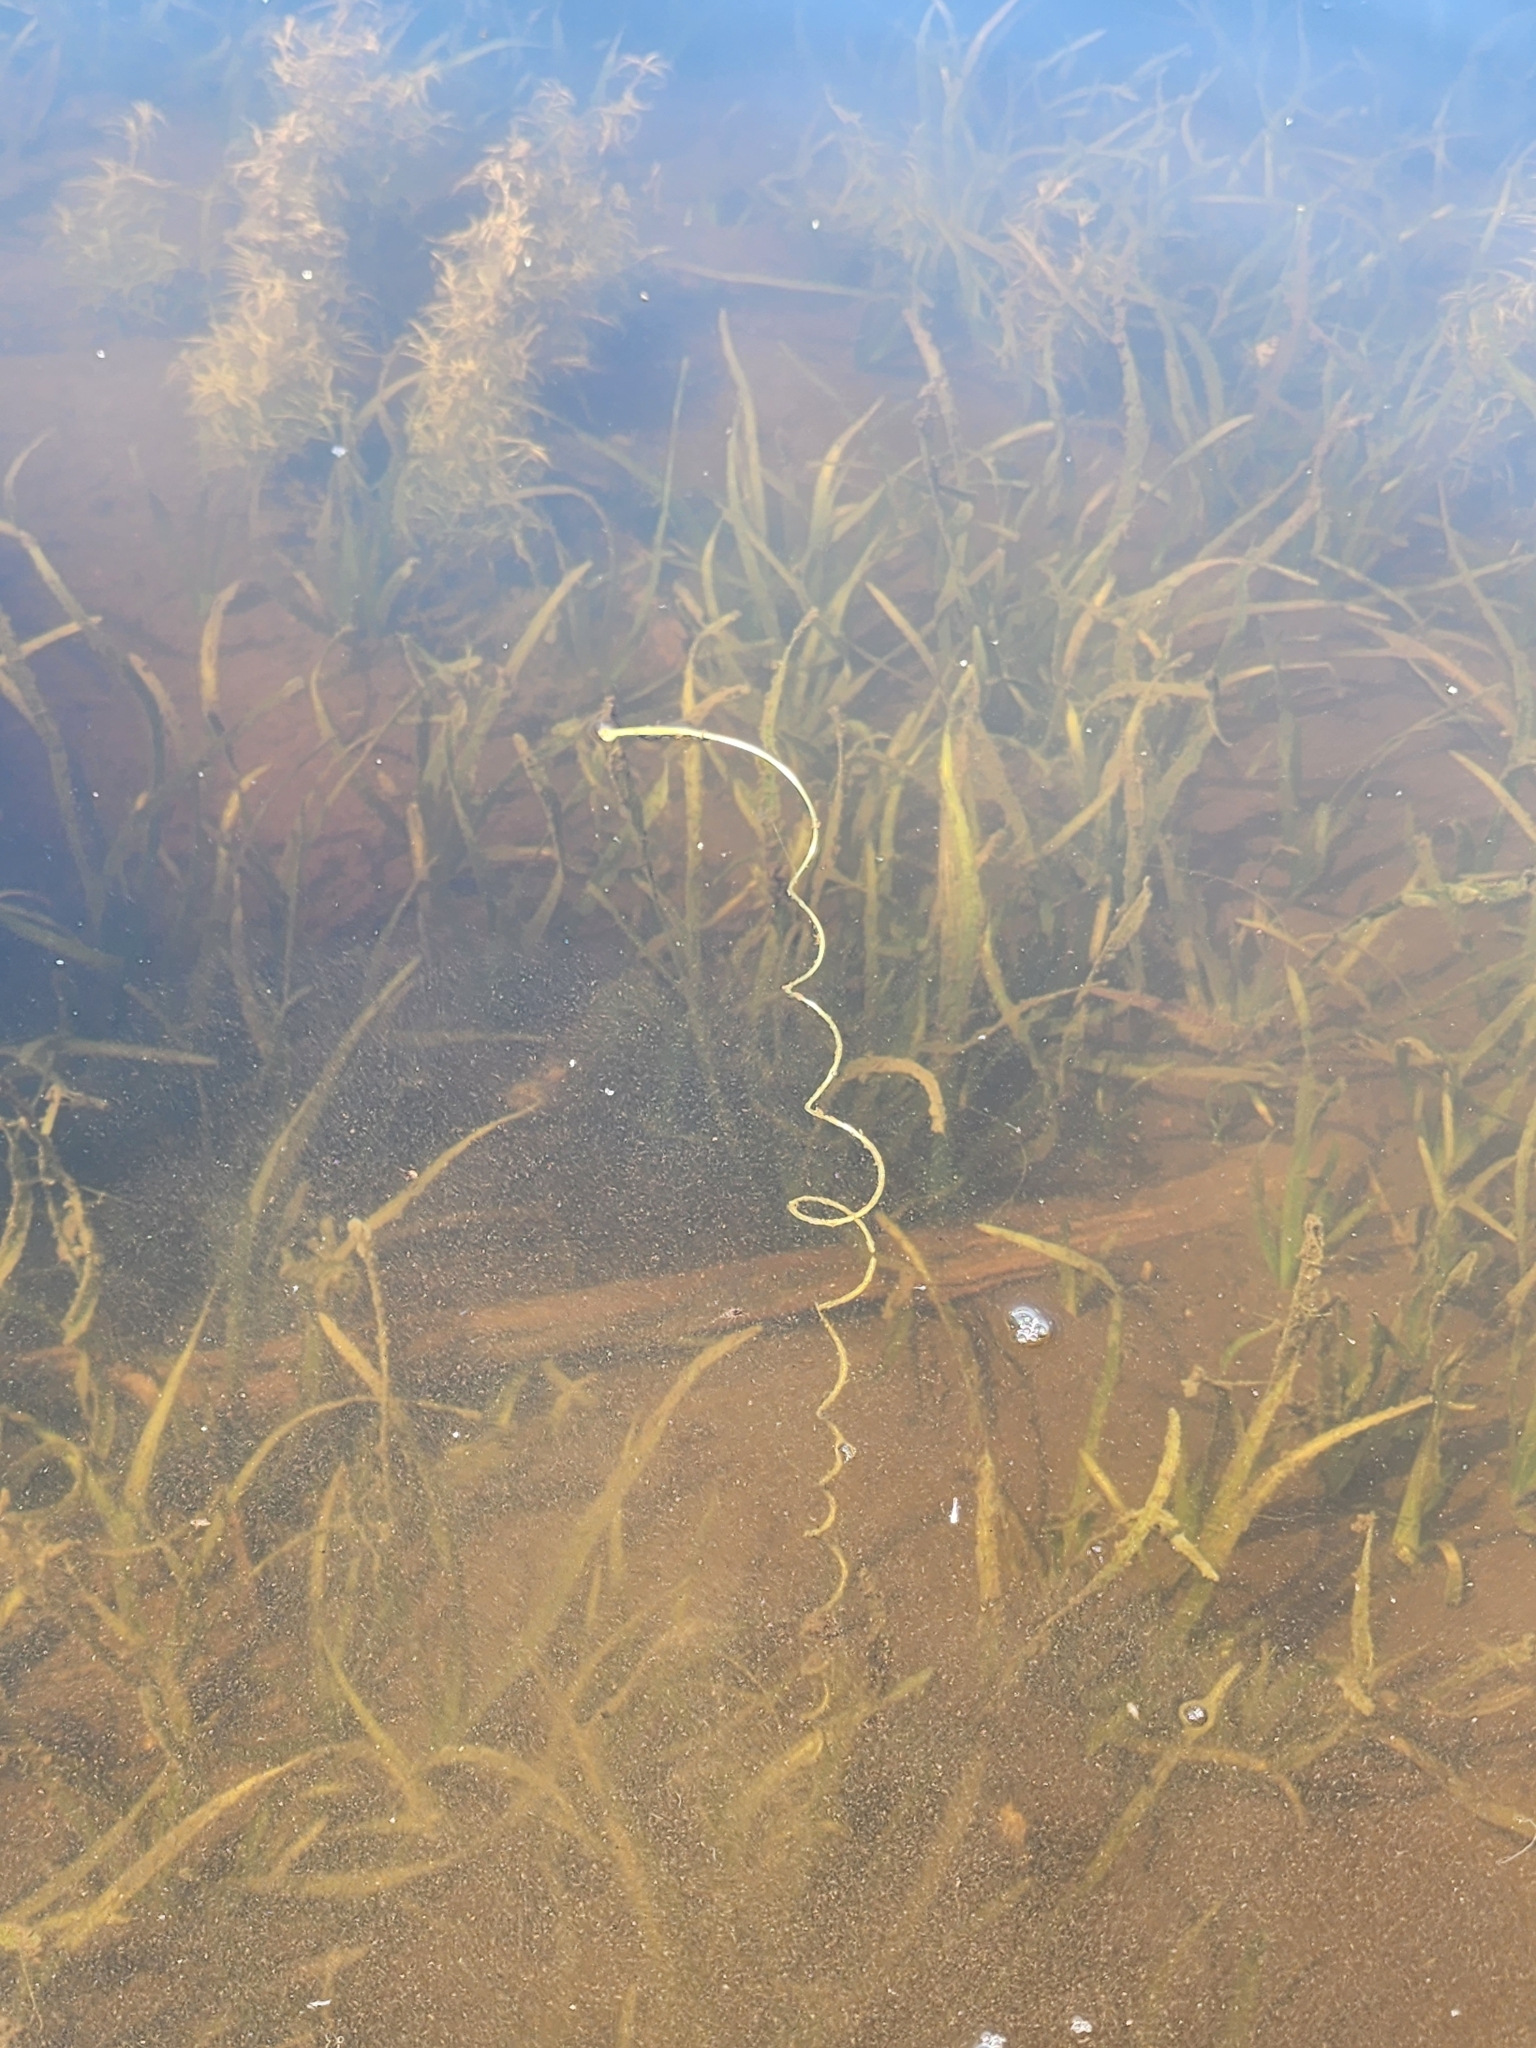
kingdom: Plantae
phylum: Tracheophyta
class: Liliopsida
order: Alismatales
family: Hydrocharitaceae
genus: Vallisneria
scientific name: Vallisneria americana
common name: American eelgrass
